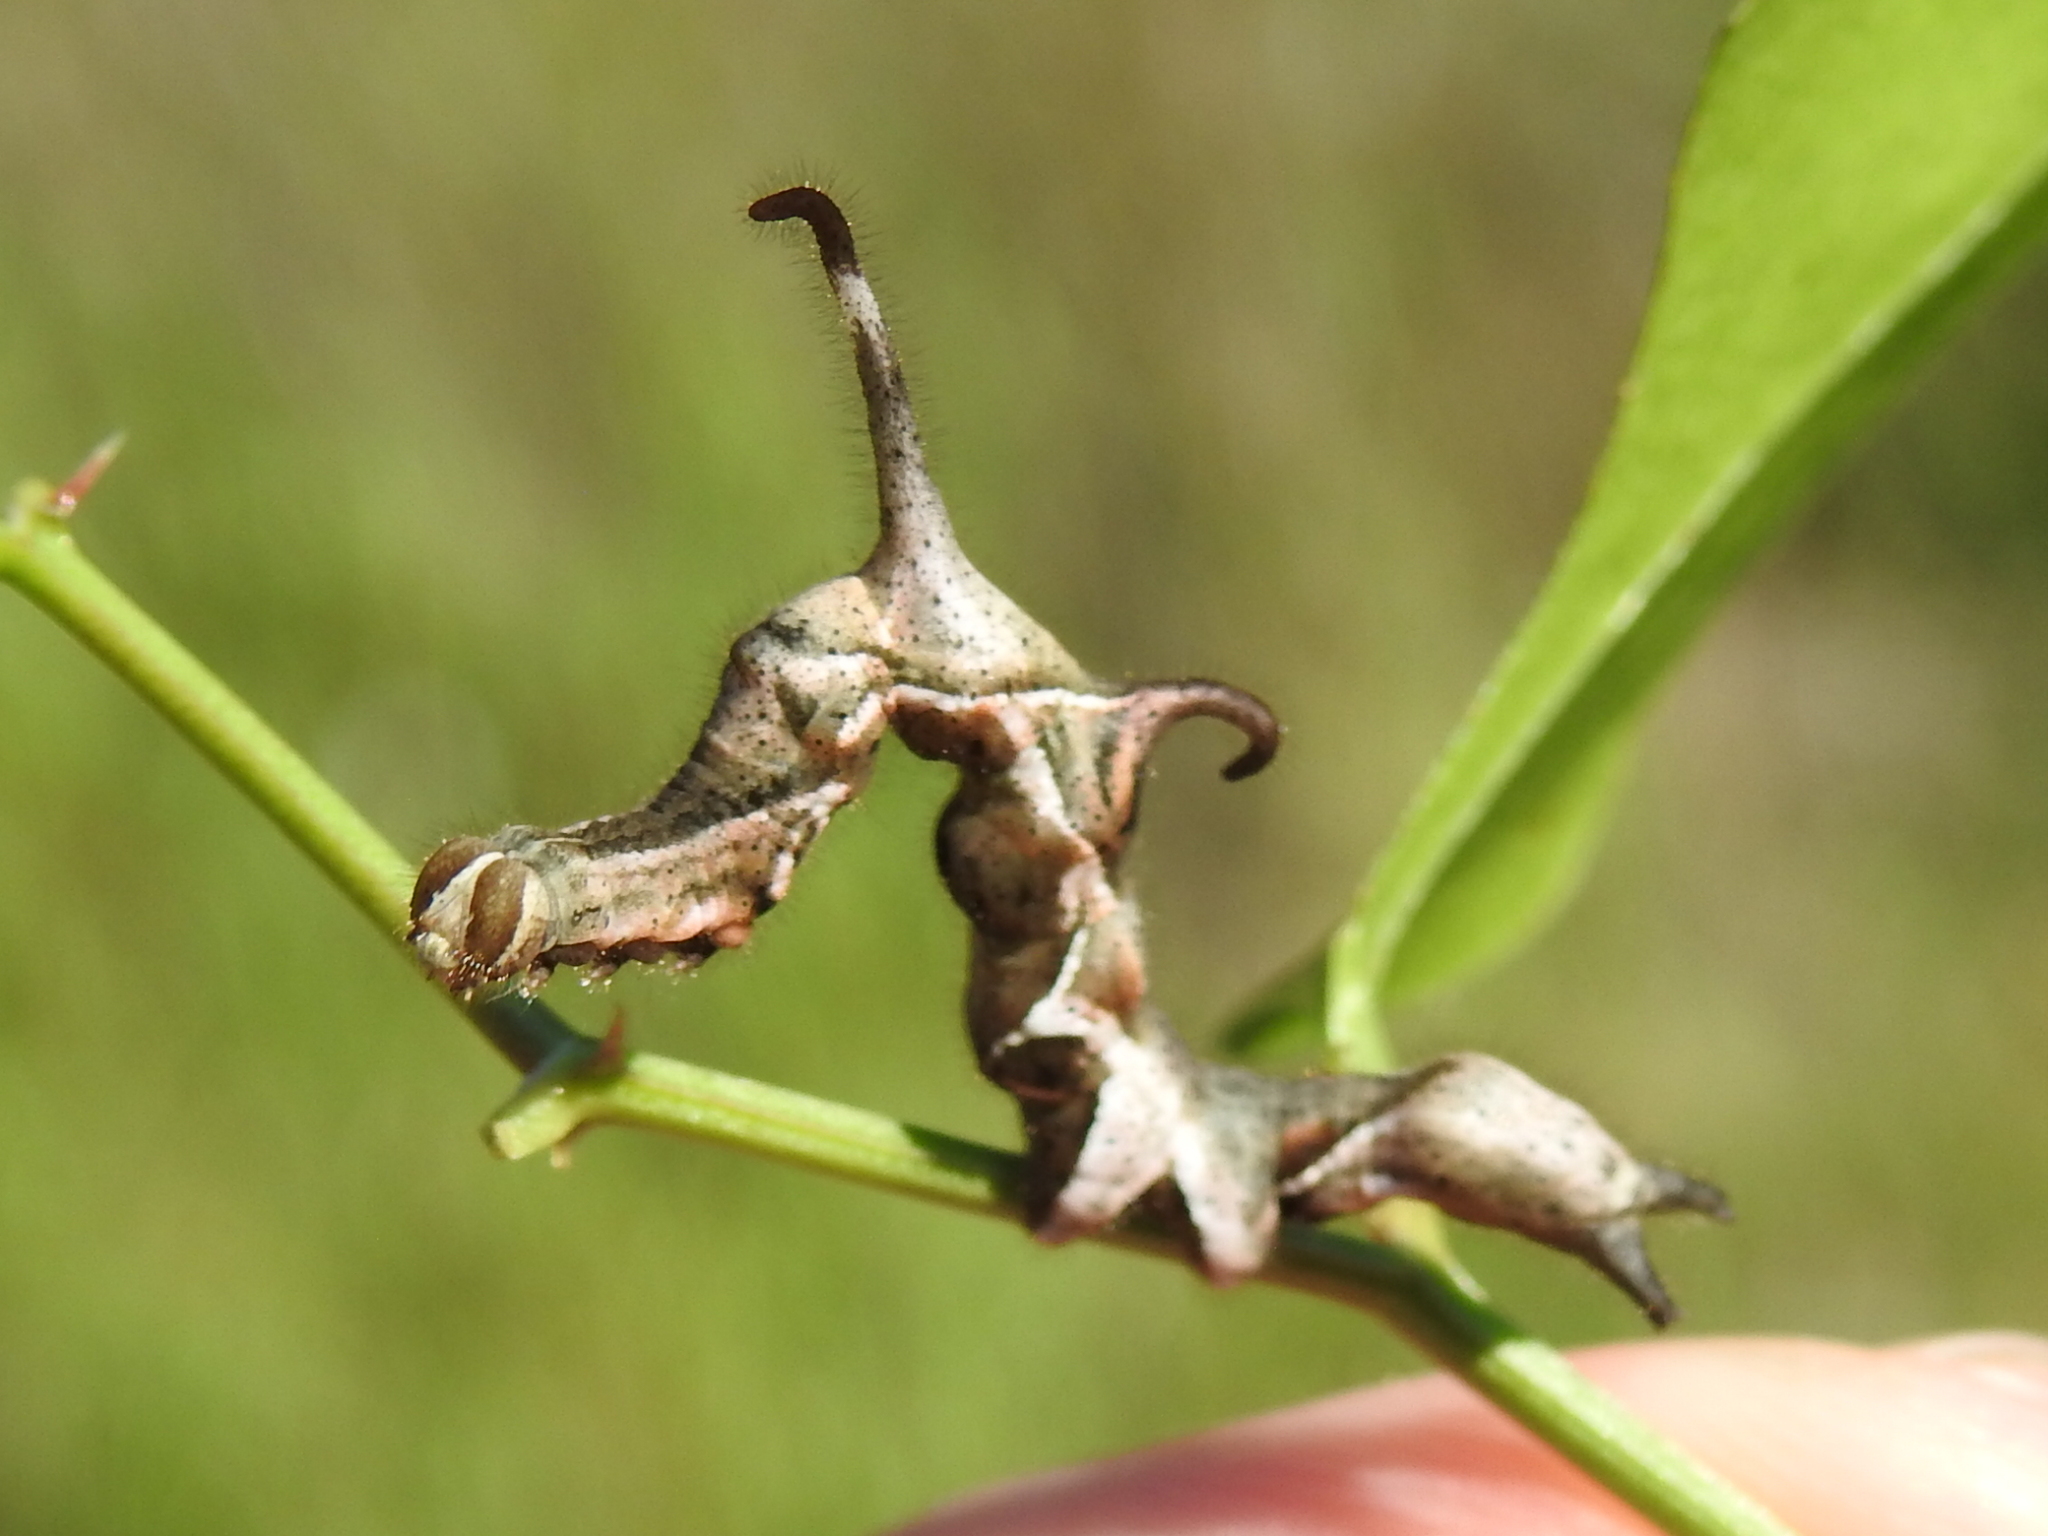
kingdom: Animalia
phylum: Arthropoda
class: Insecta
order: Lepidoptera
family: Erebidae
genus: Phyprosopus
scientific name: Phyprosopus callitrichoides
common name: Curved-lined owlet
